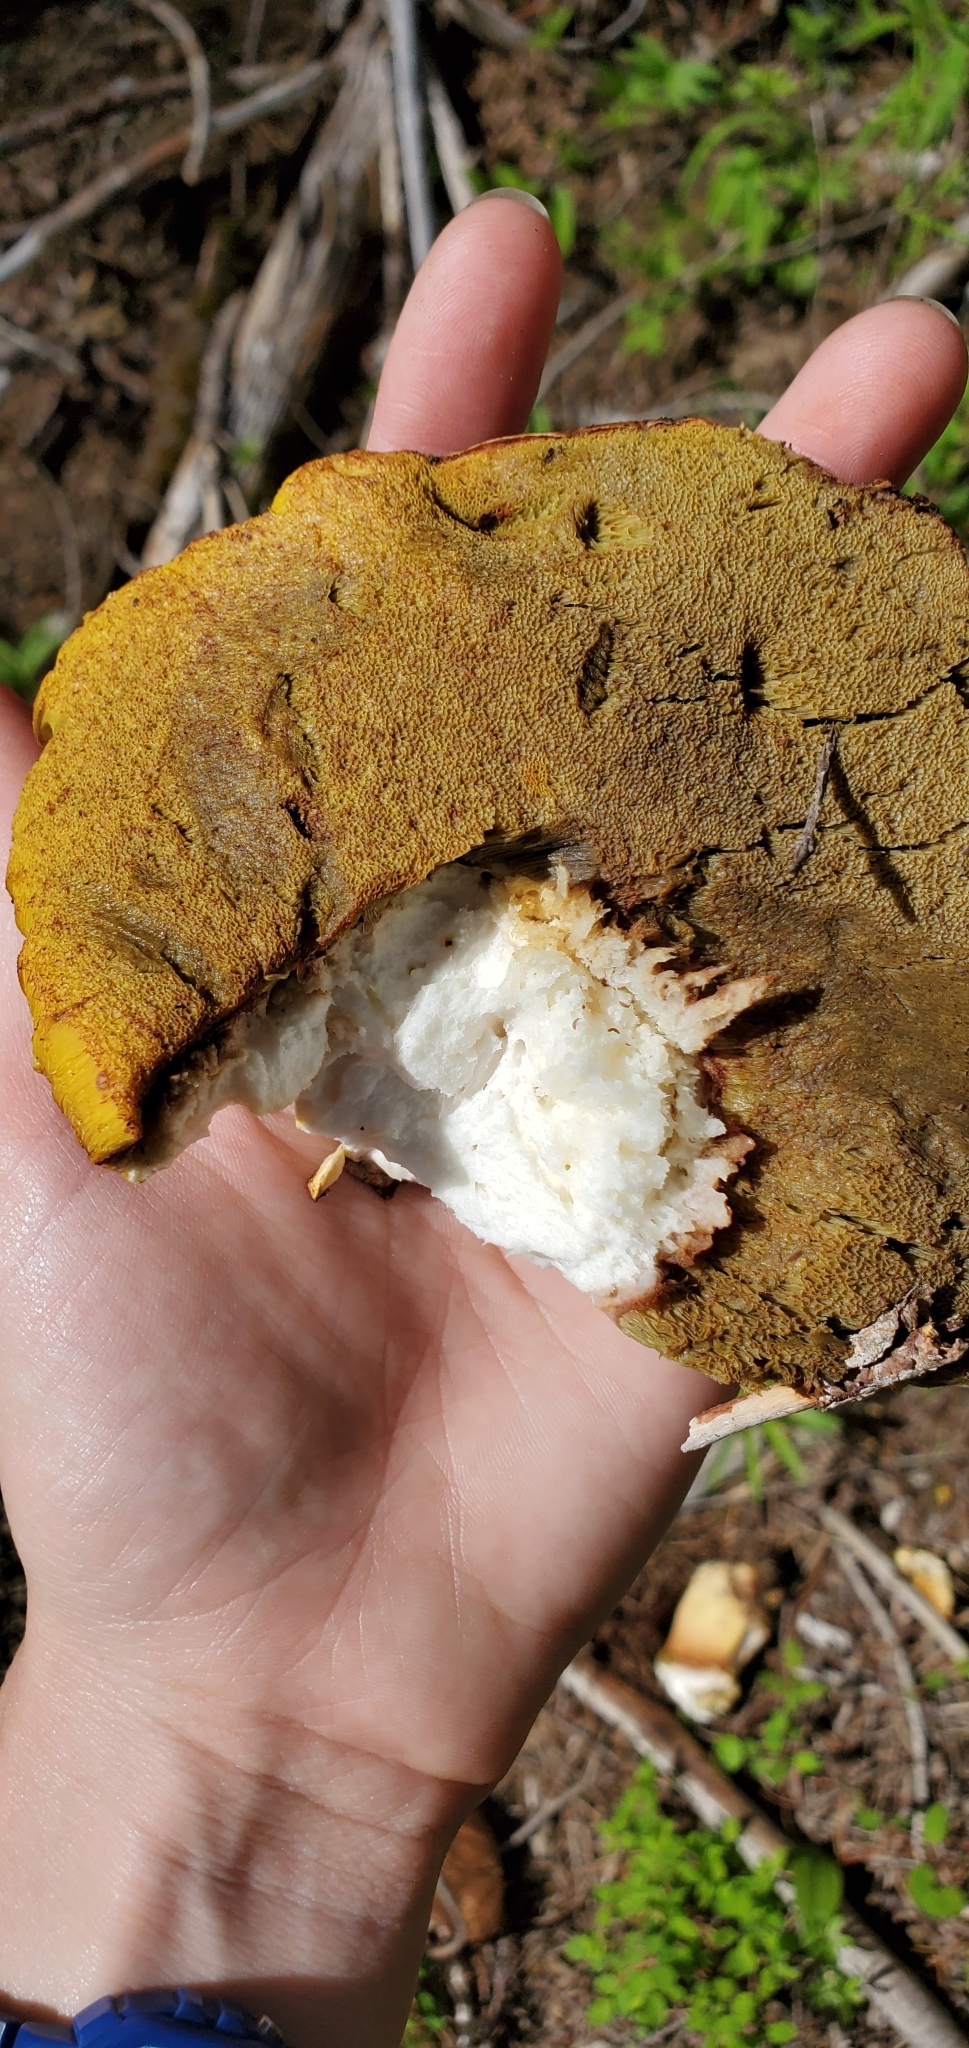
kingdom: Fungi
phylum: Basidiomycota
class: Agaricomycetes
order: Boletales
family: Boletaceae
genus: Boletus
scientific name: Boletus rex-veris
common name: Spring king
